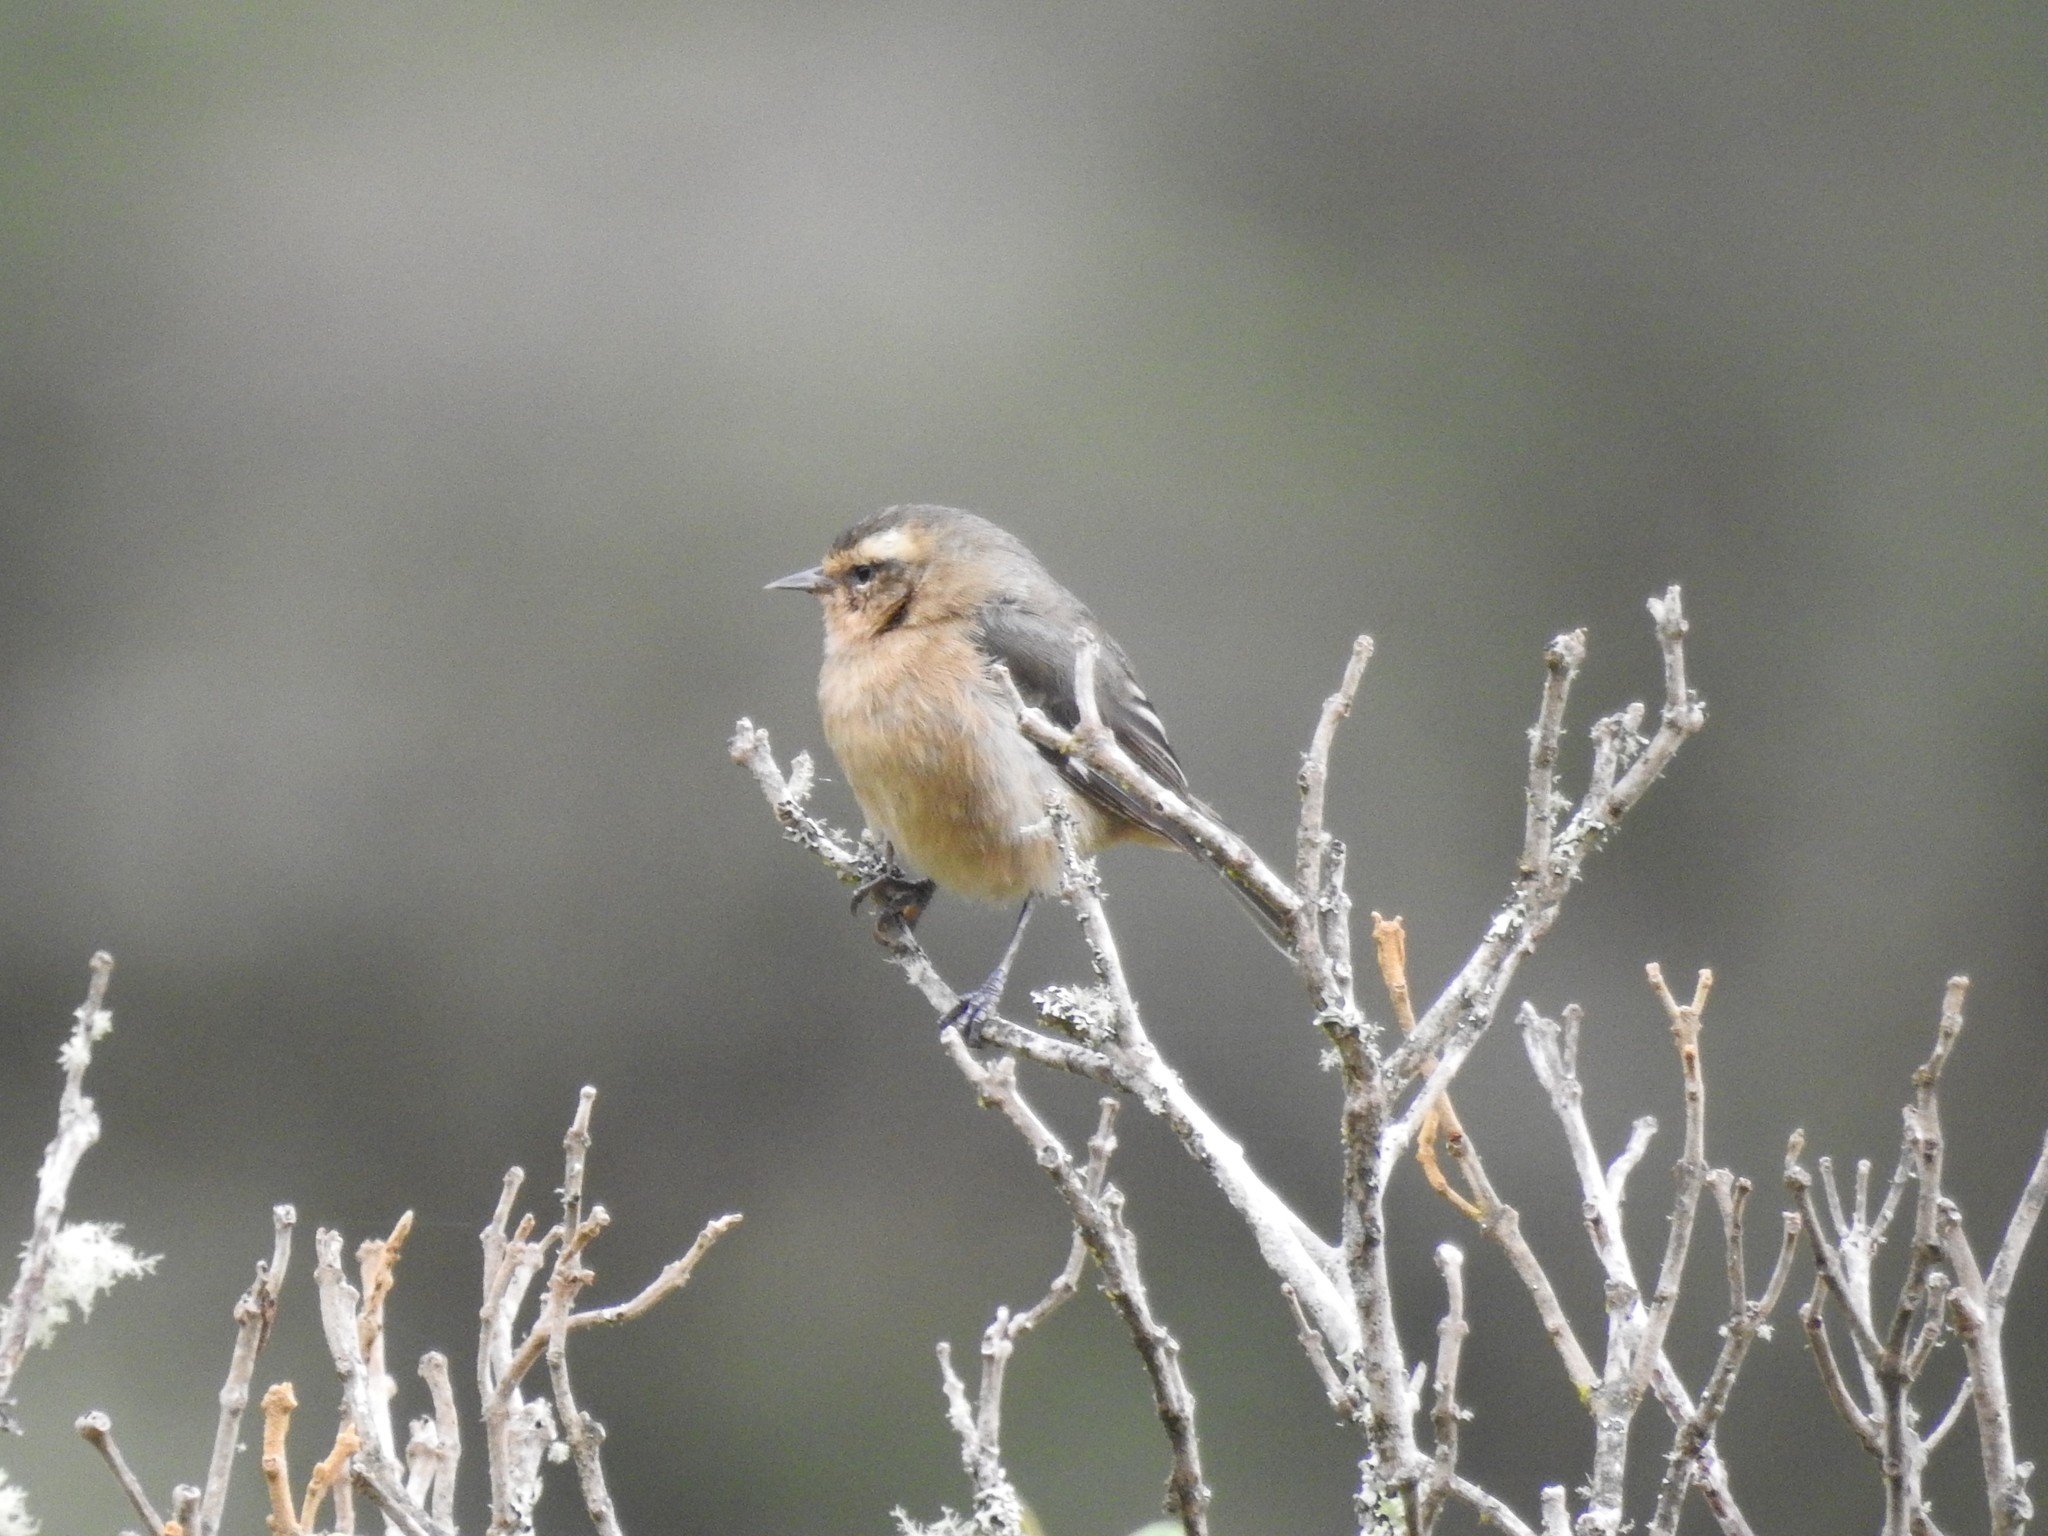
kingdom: Animalia
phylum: Chordata
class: Aves
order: Passeriformes
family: Thraupidae
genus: Conirostrum
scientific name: Conirostrum cinereum
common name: Cinereous conebill
